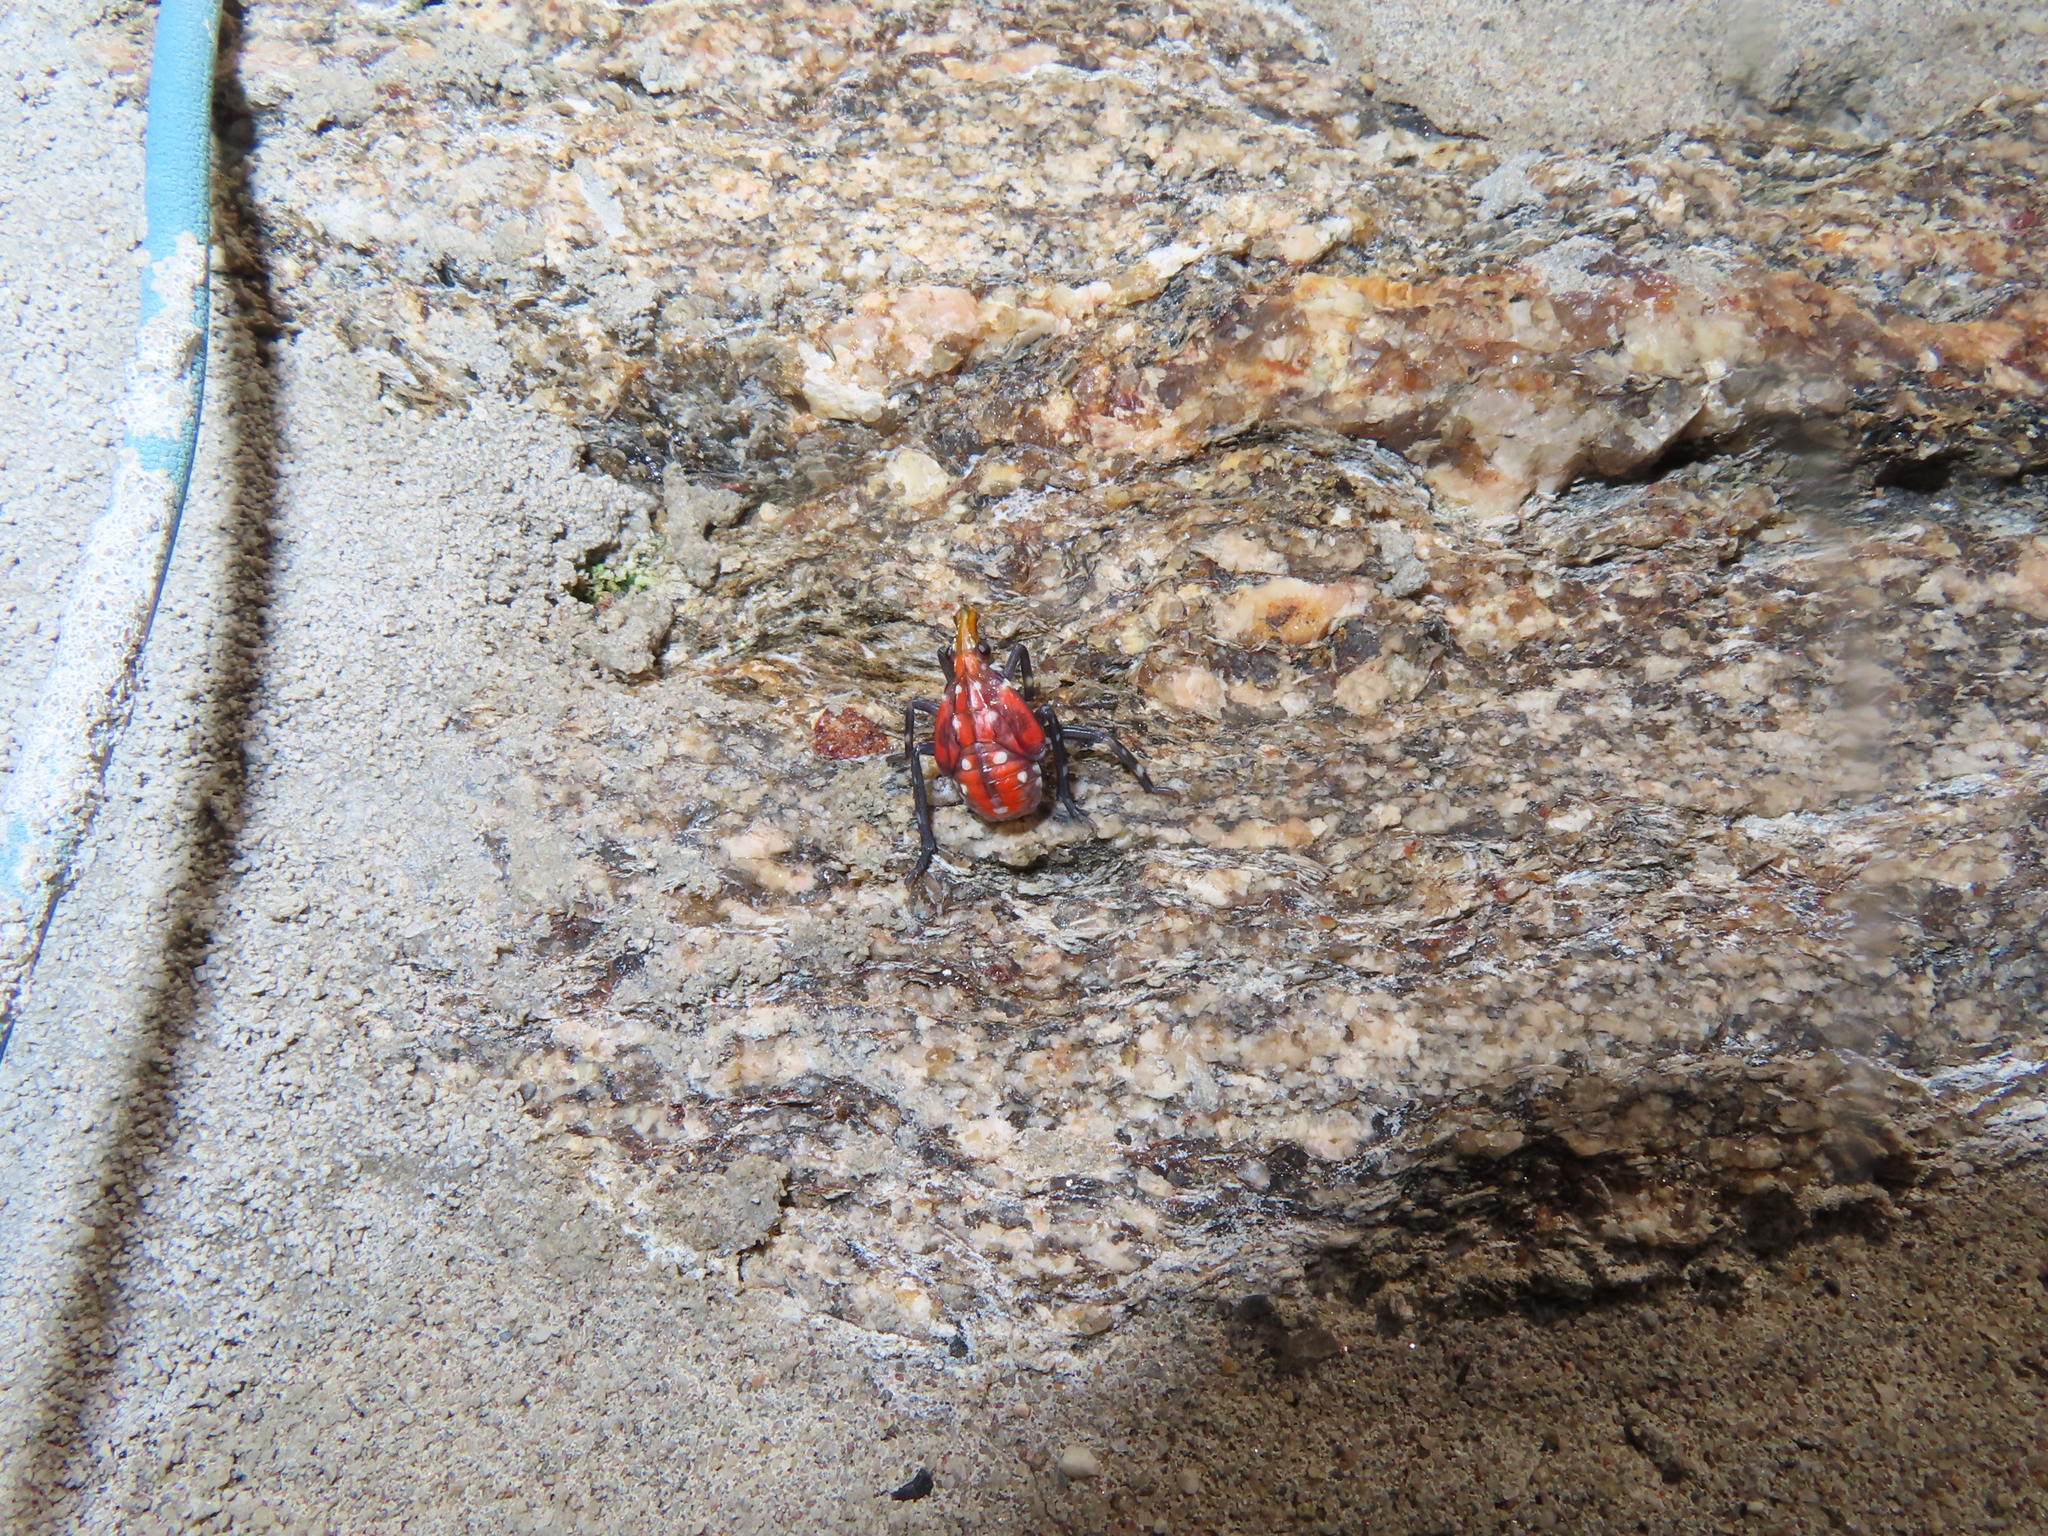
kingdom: Animalia
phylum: Arthropoda
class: Insecta
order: Hemiptera
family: Fulgoridae
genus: Lycorma
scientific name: Lycorma delicatula
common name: Spotted lanternfly
